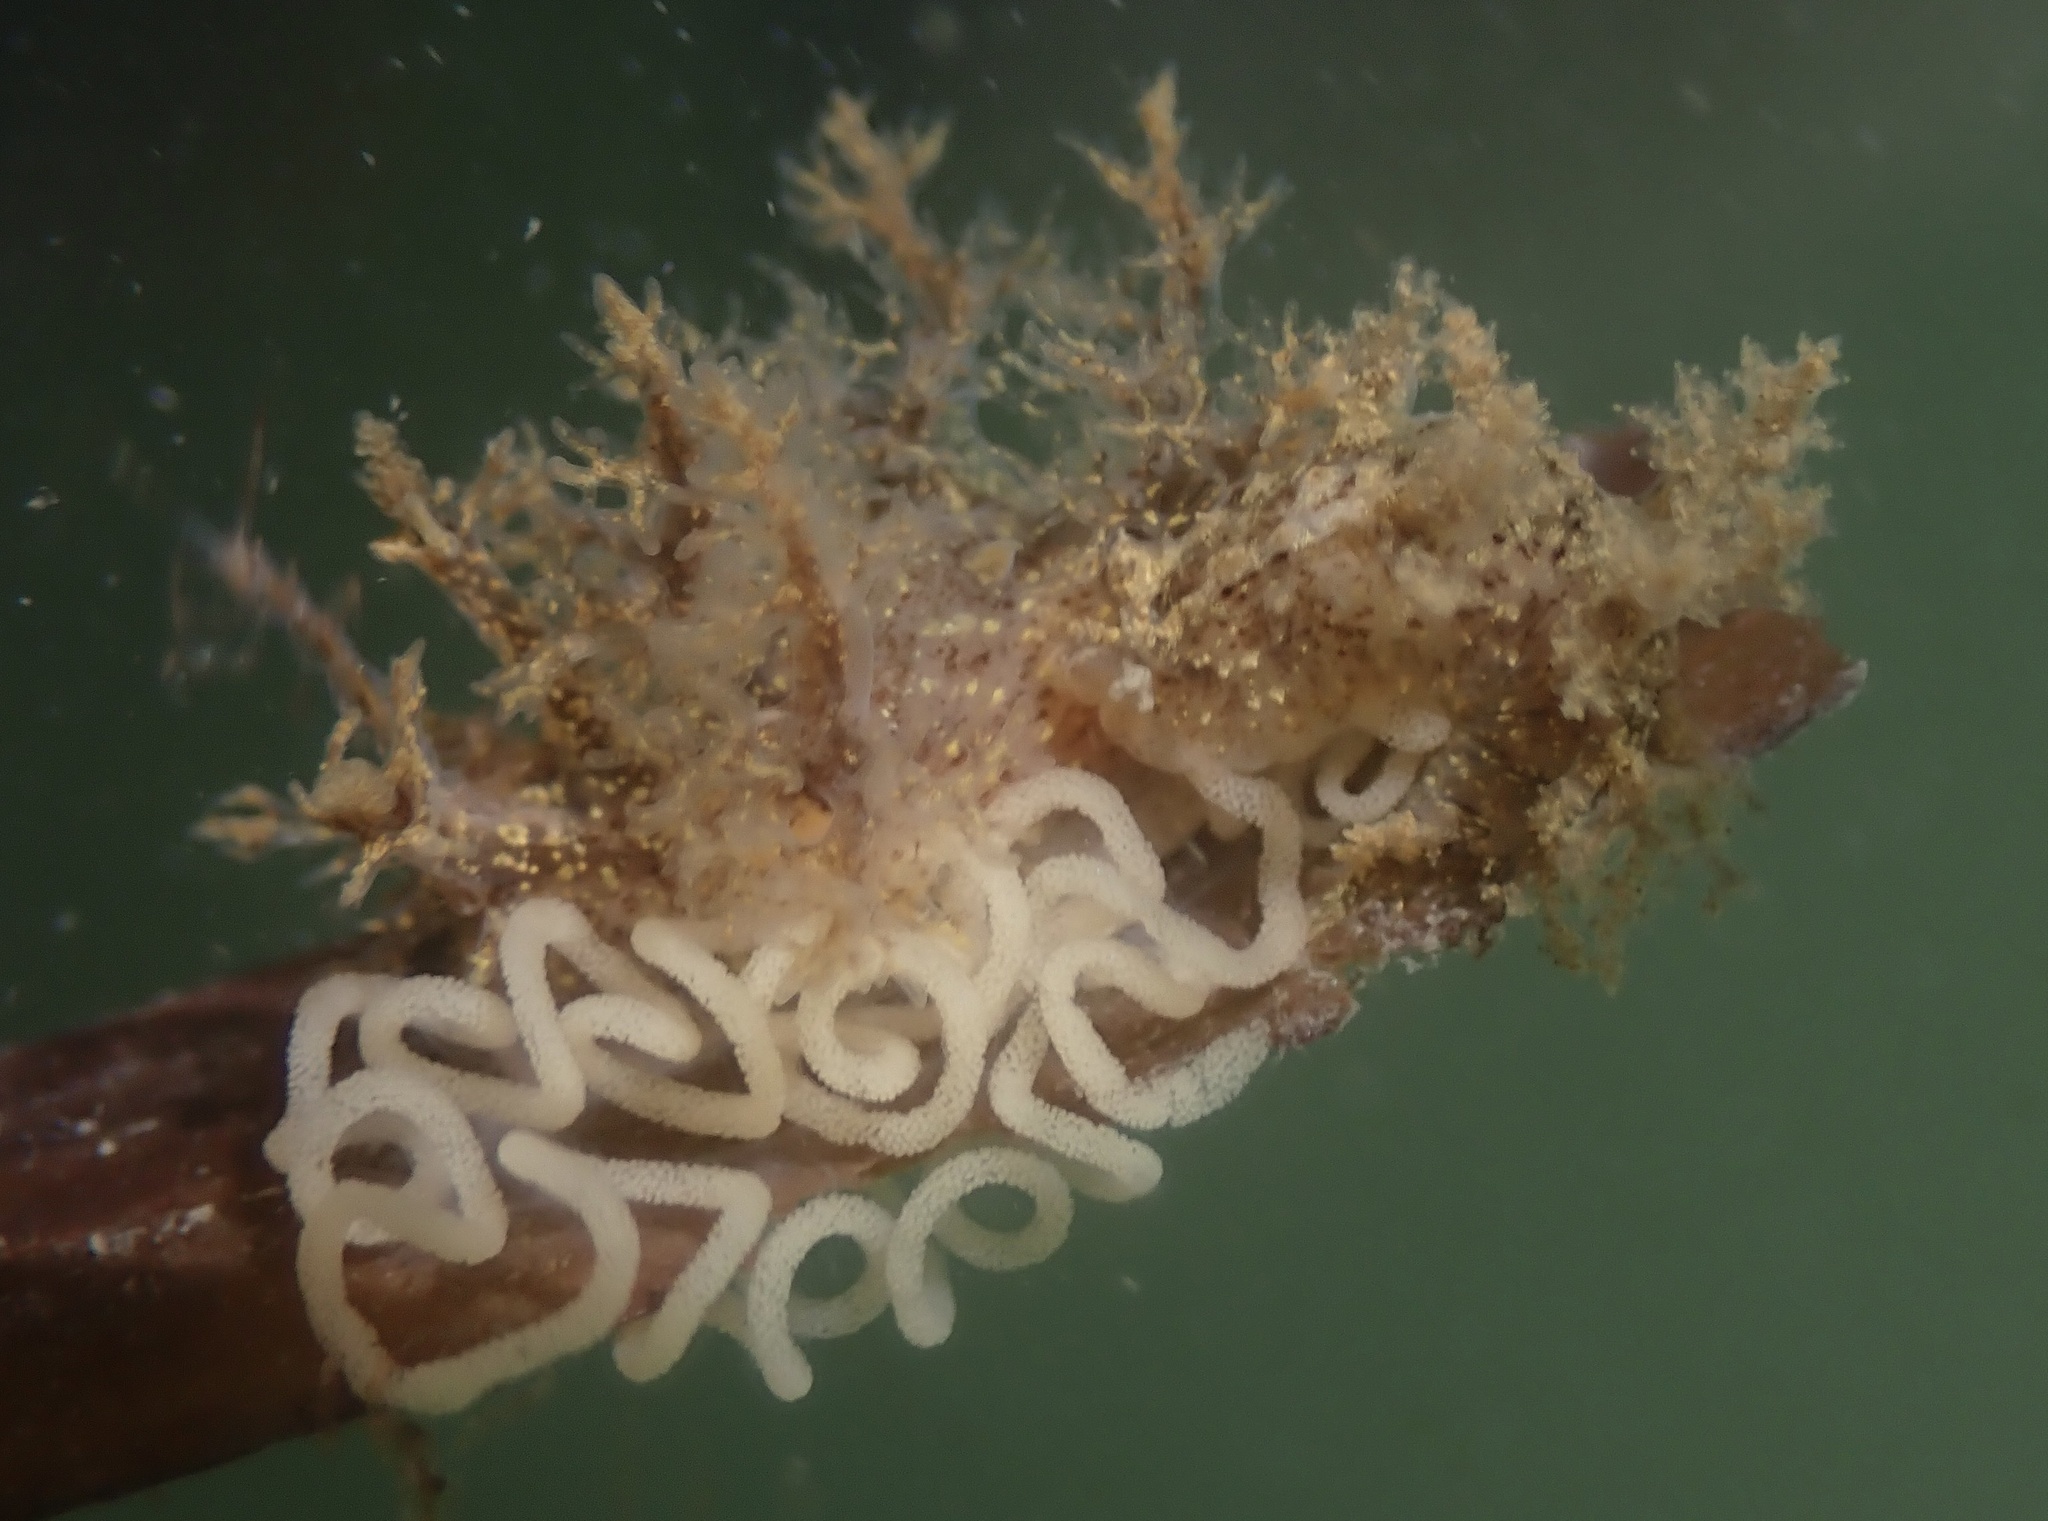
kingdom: Animalia
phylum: Mollusca
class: Gastropoda
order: Nudibranchia
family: Dendronotidae
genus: Dendronotus
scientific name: Dendronotus venustus
